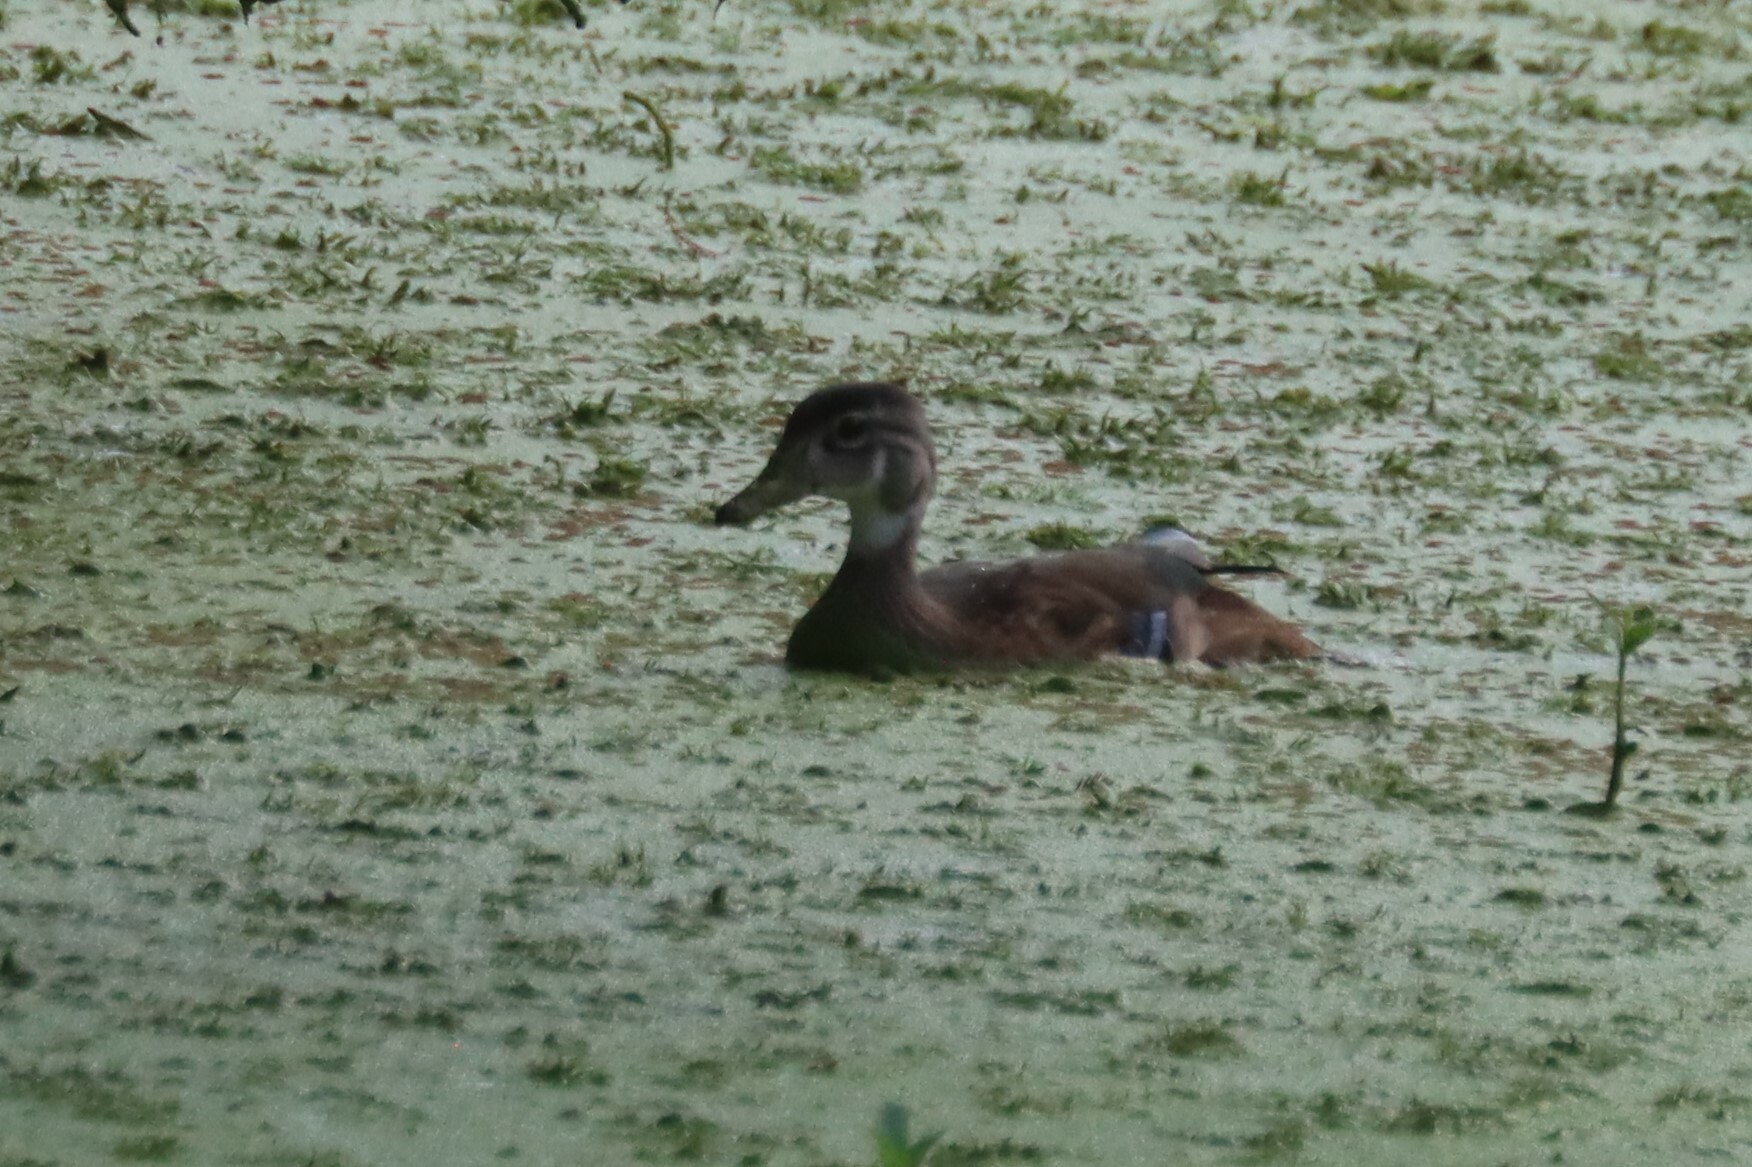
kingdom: Animalia
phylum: Chordata
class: Aves
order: Anseriformes
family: Anatidae
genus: Aix
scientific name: Aix sponsa
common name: Wood duck
